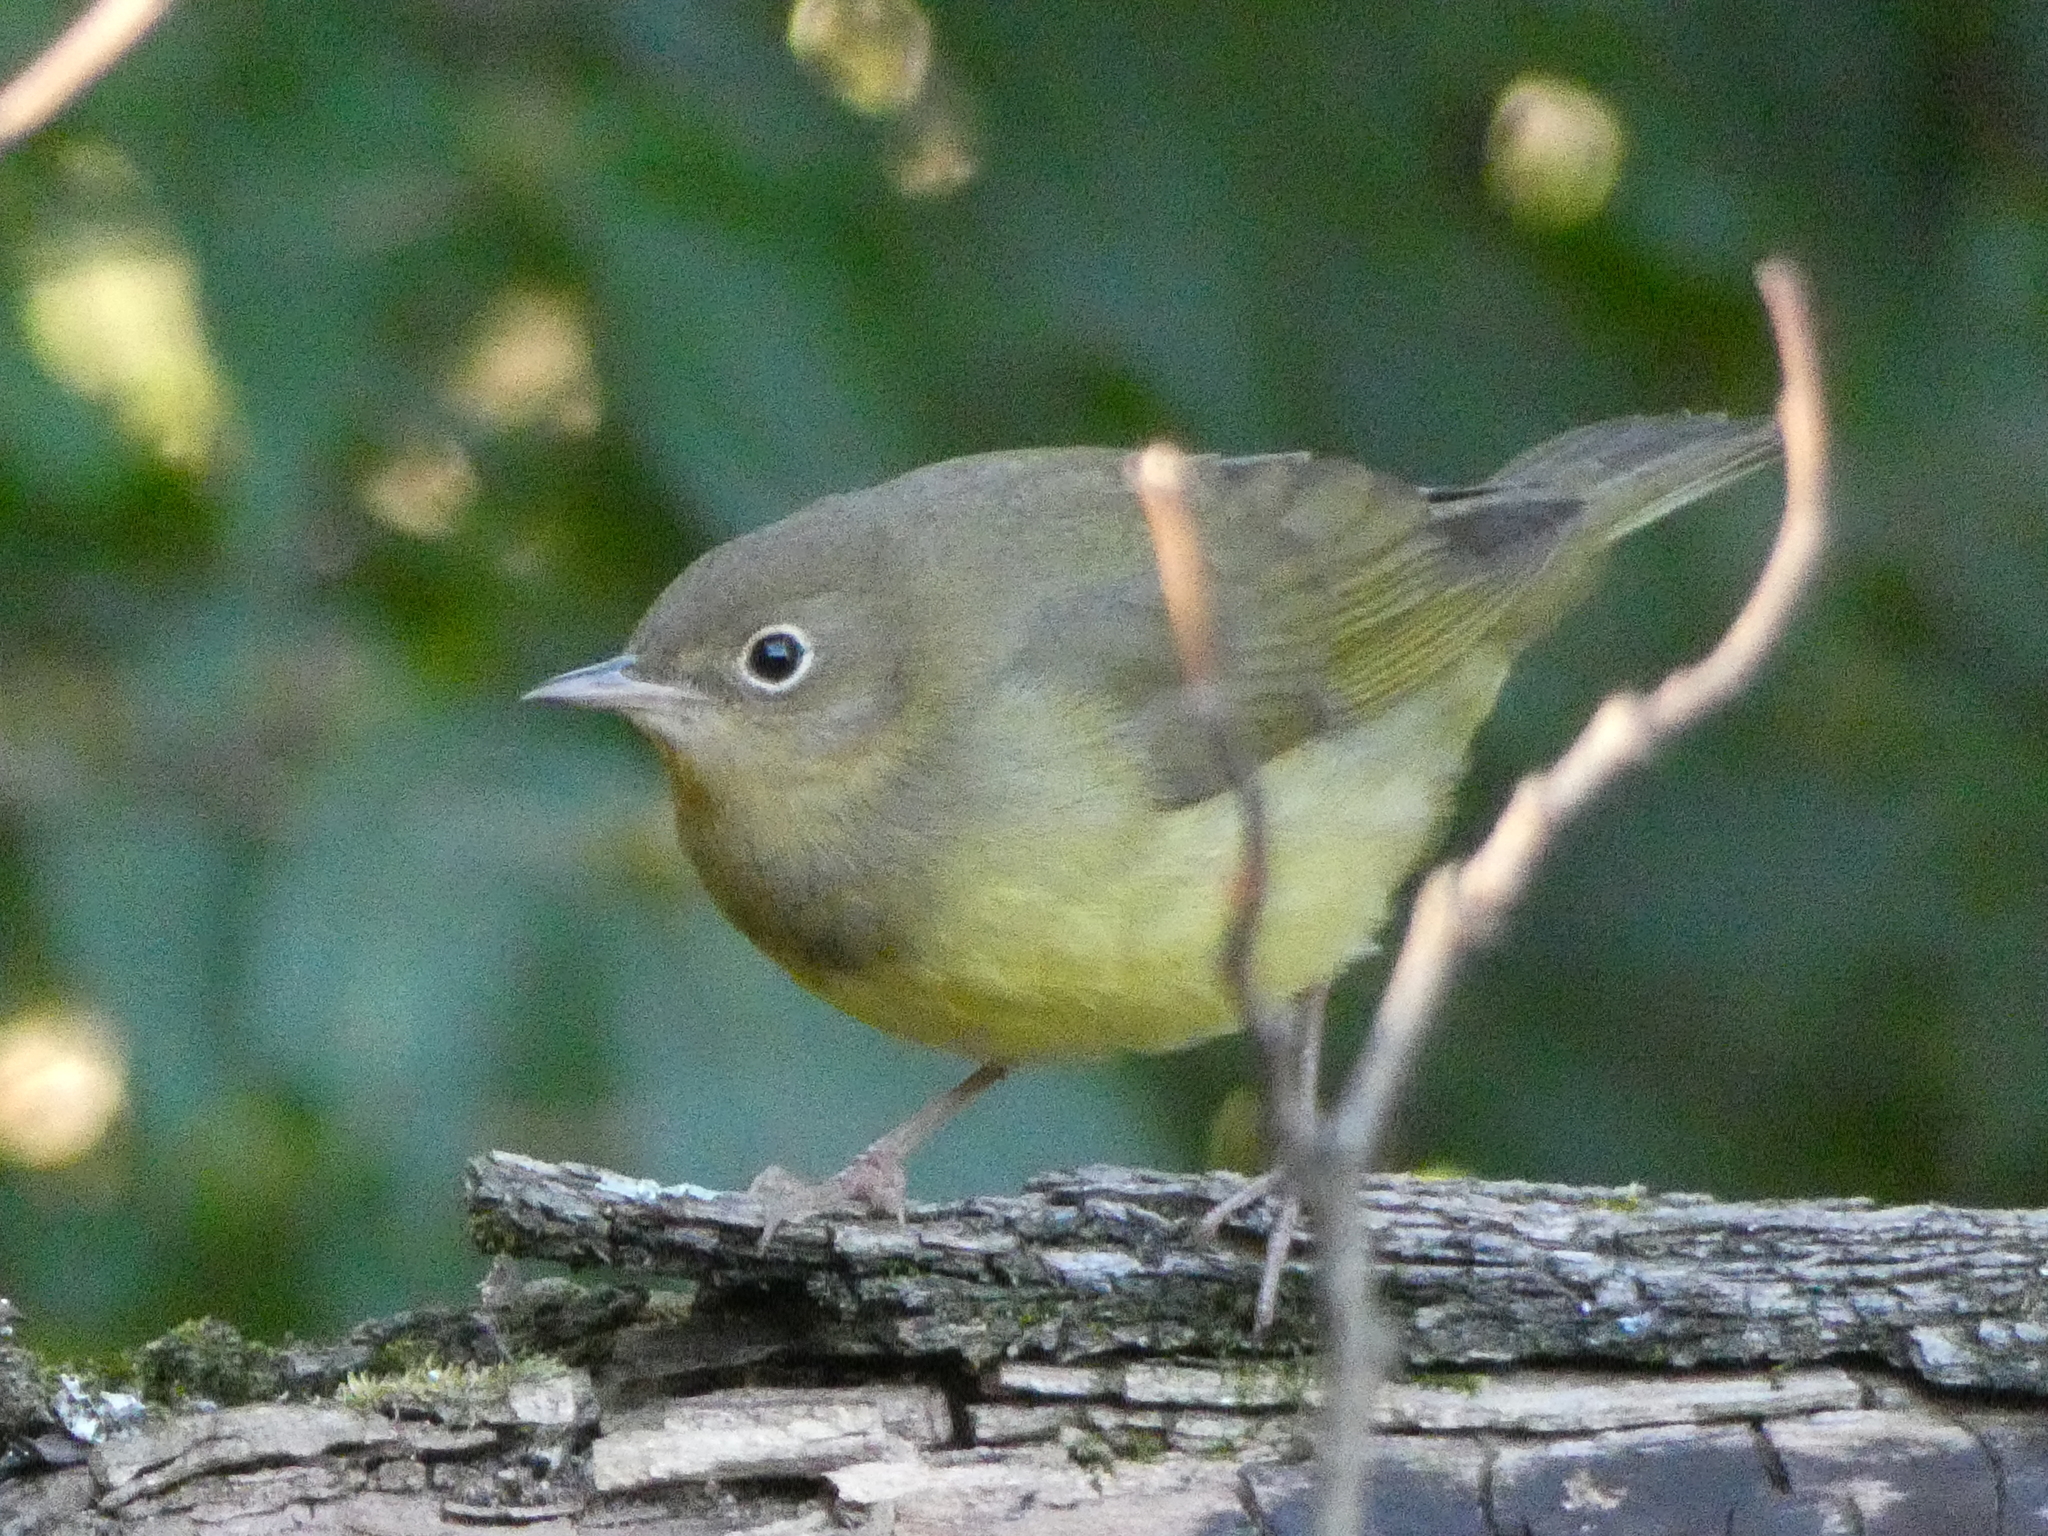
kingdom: Animalia
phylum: Chordata
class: Aves
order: Passeriformes
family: Parulidae
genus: Leiothlypis
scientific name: Leiothlypis ruficapilla
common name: Nashville warbler
